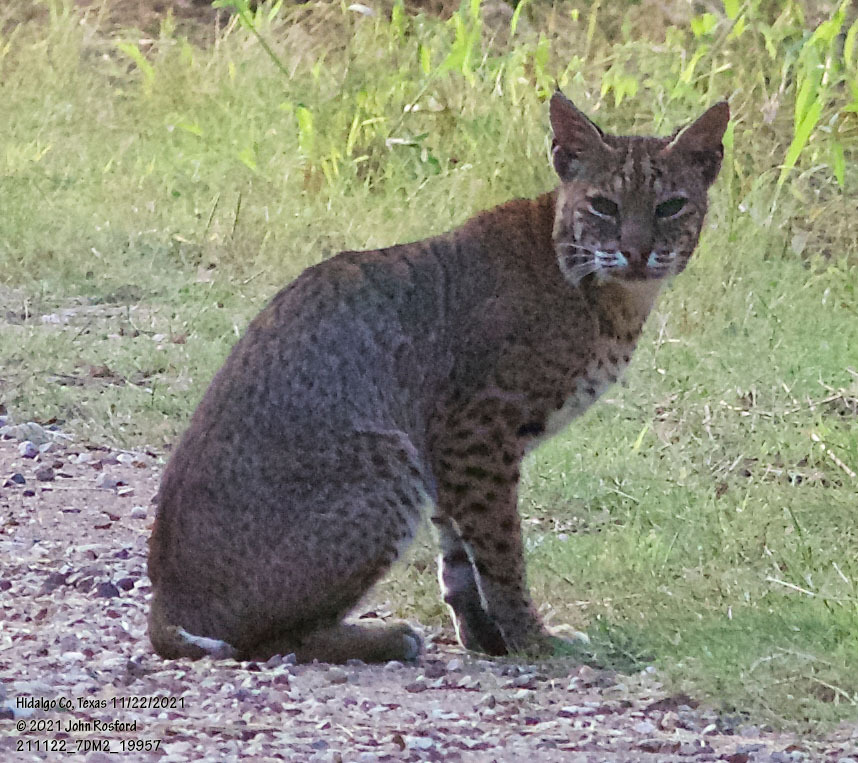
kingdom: Animalia
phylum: Chordata
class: Mammalia
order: Carnivora
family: Felidae
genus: Lynx
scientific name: Lynx rufus
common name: Bobcat
